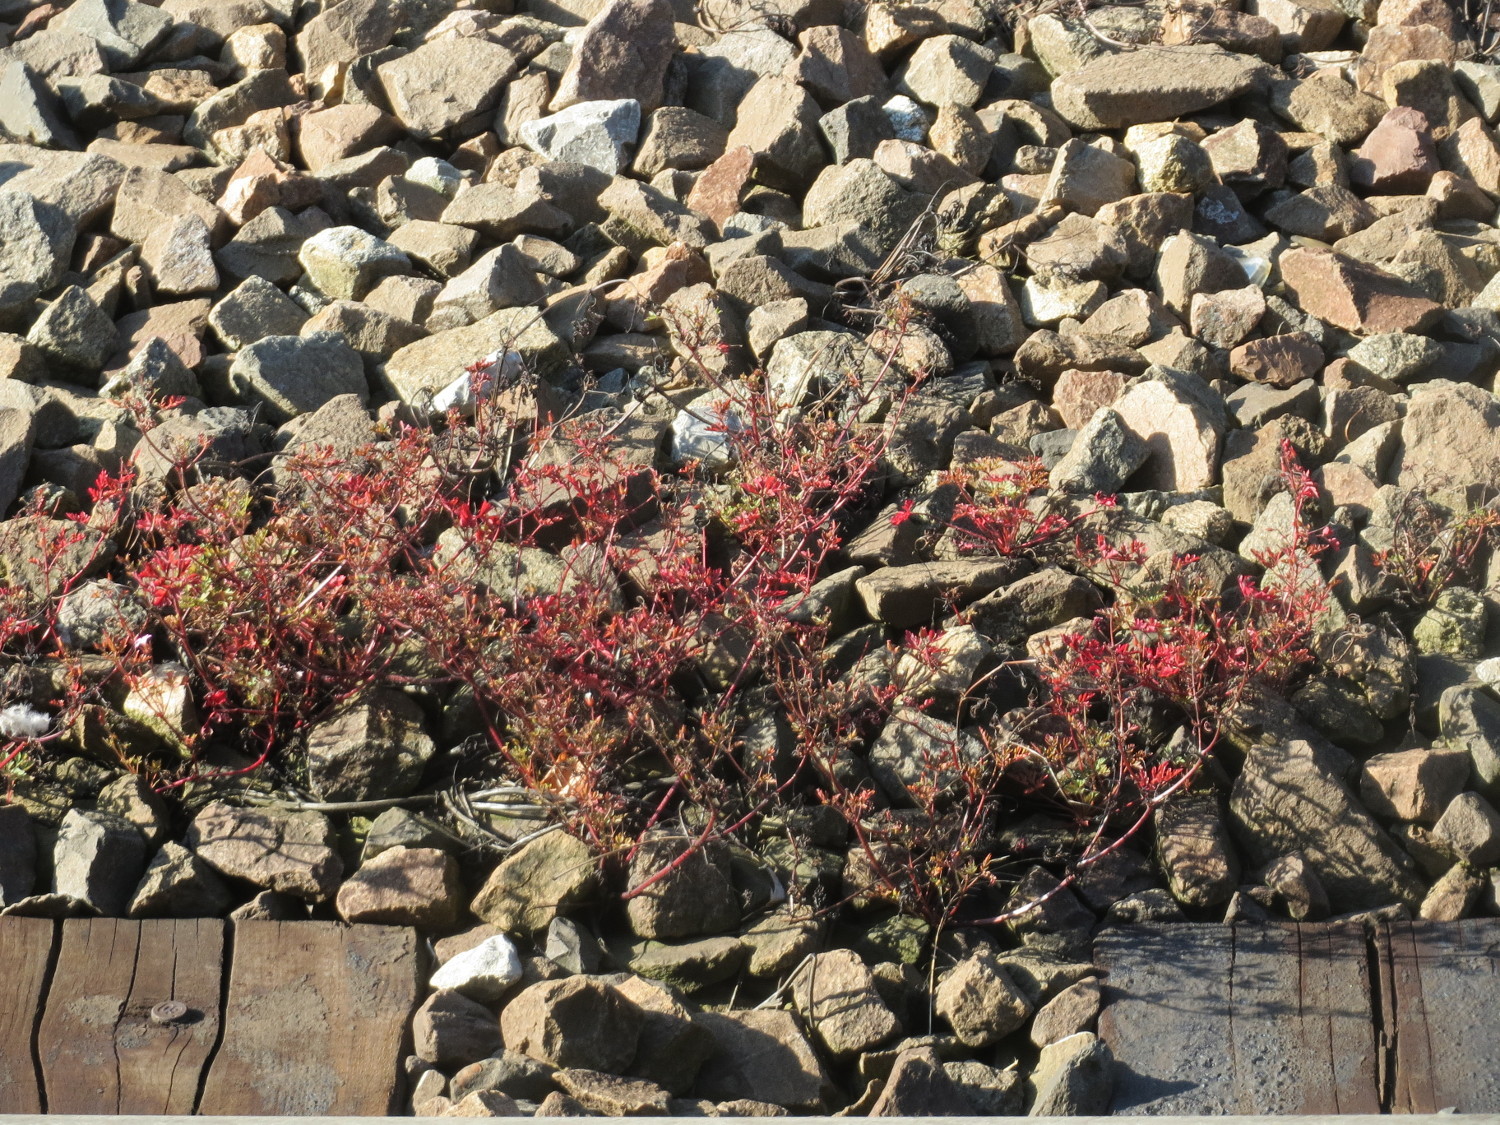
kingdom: Plantae
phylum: Tracheophyta
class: Magnoliopsida
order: Geraniales
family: Geraniaceae
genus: Geranium
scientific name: Geranium robertianum
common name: Herb-robert
